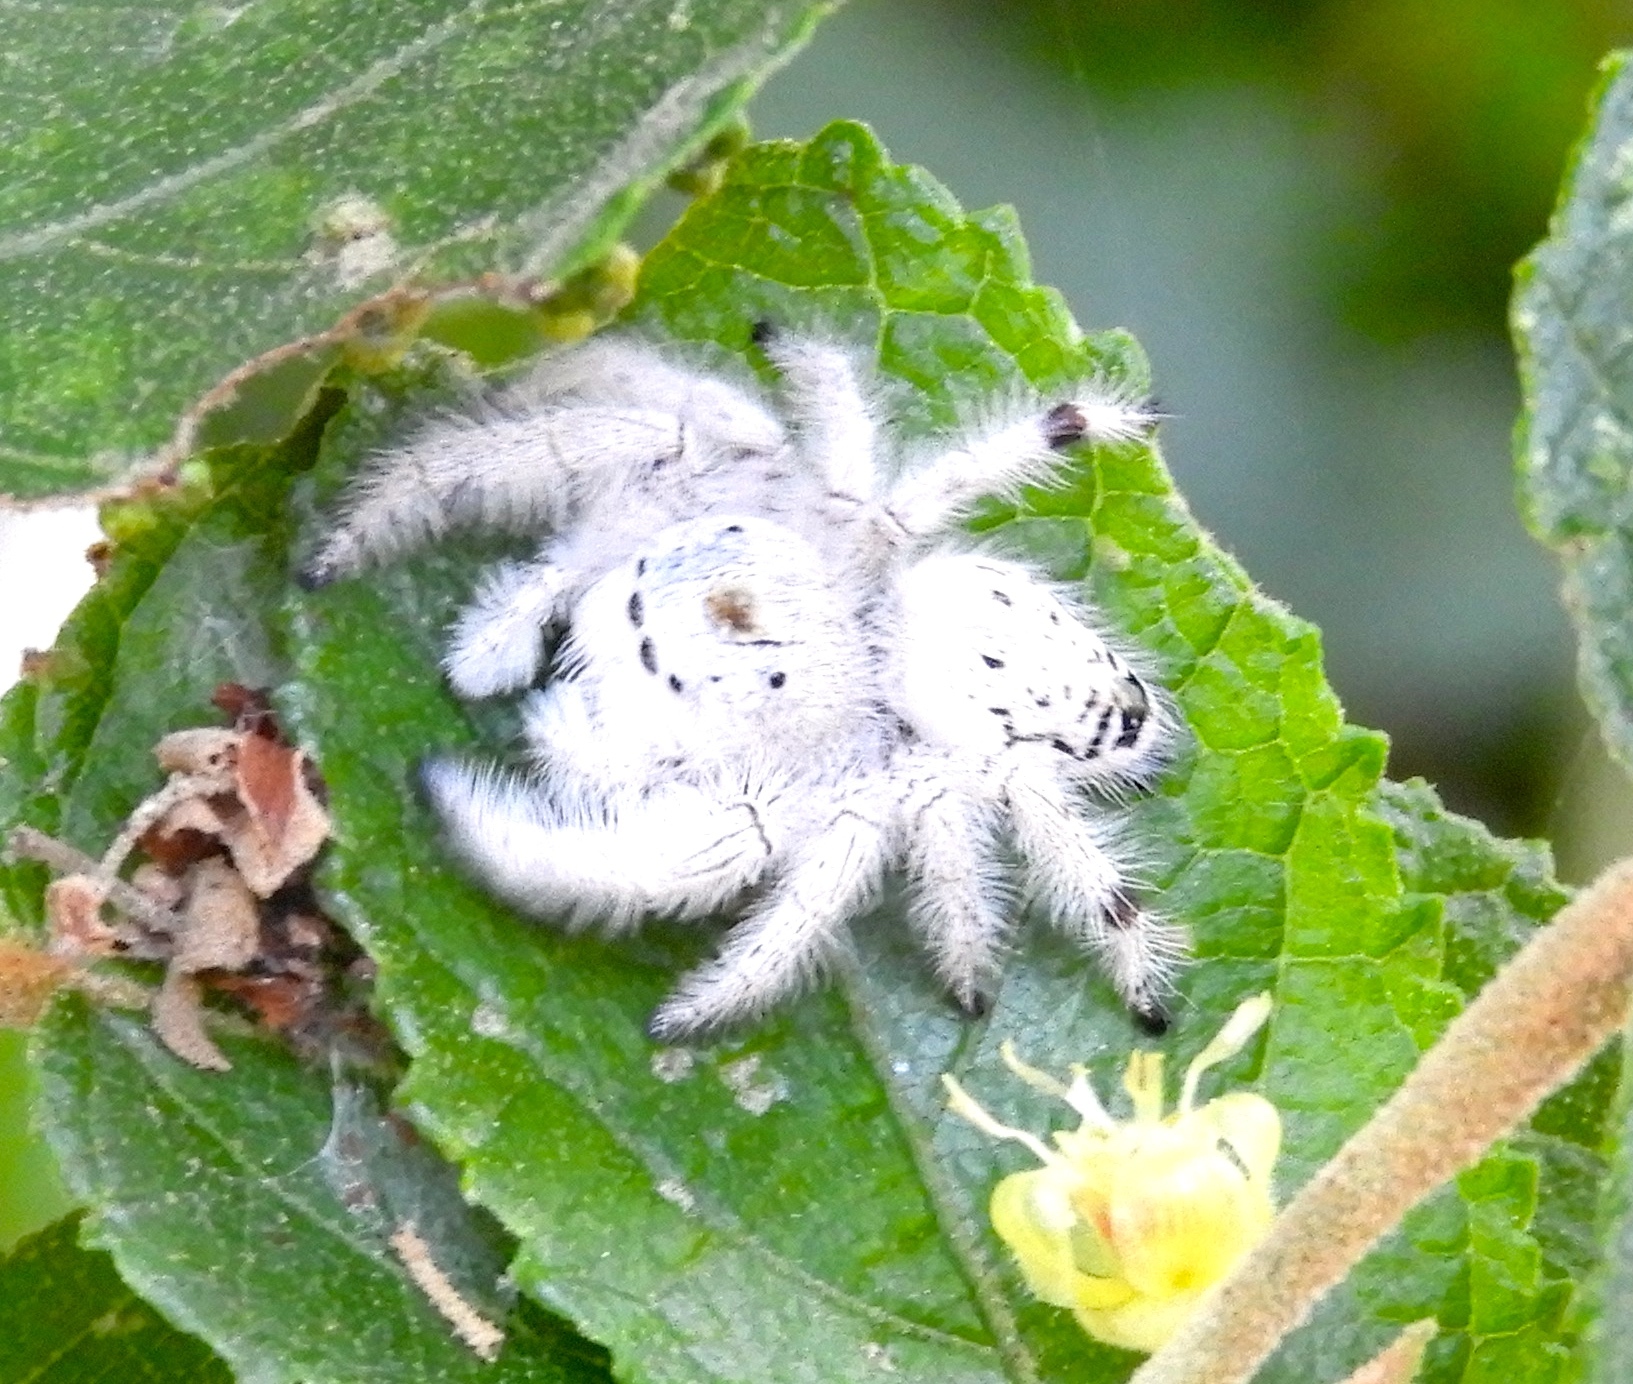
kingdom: Animalia
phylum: Arthropoda
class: Arachnida
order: Araneae
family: Salticidae
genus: Paraphidippus
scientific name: Paraphidippus fartilis
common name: Jumping spiders
